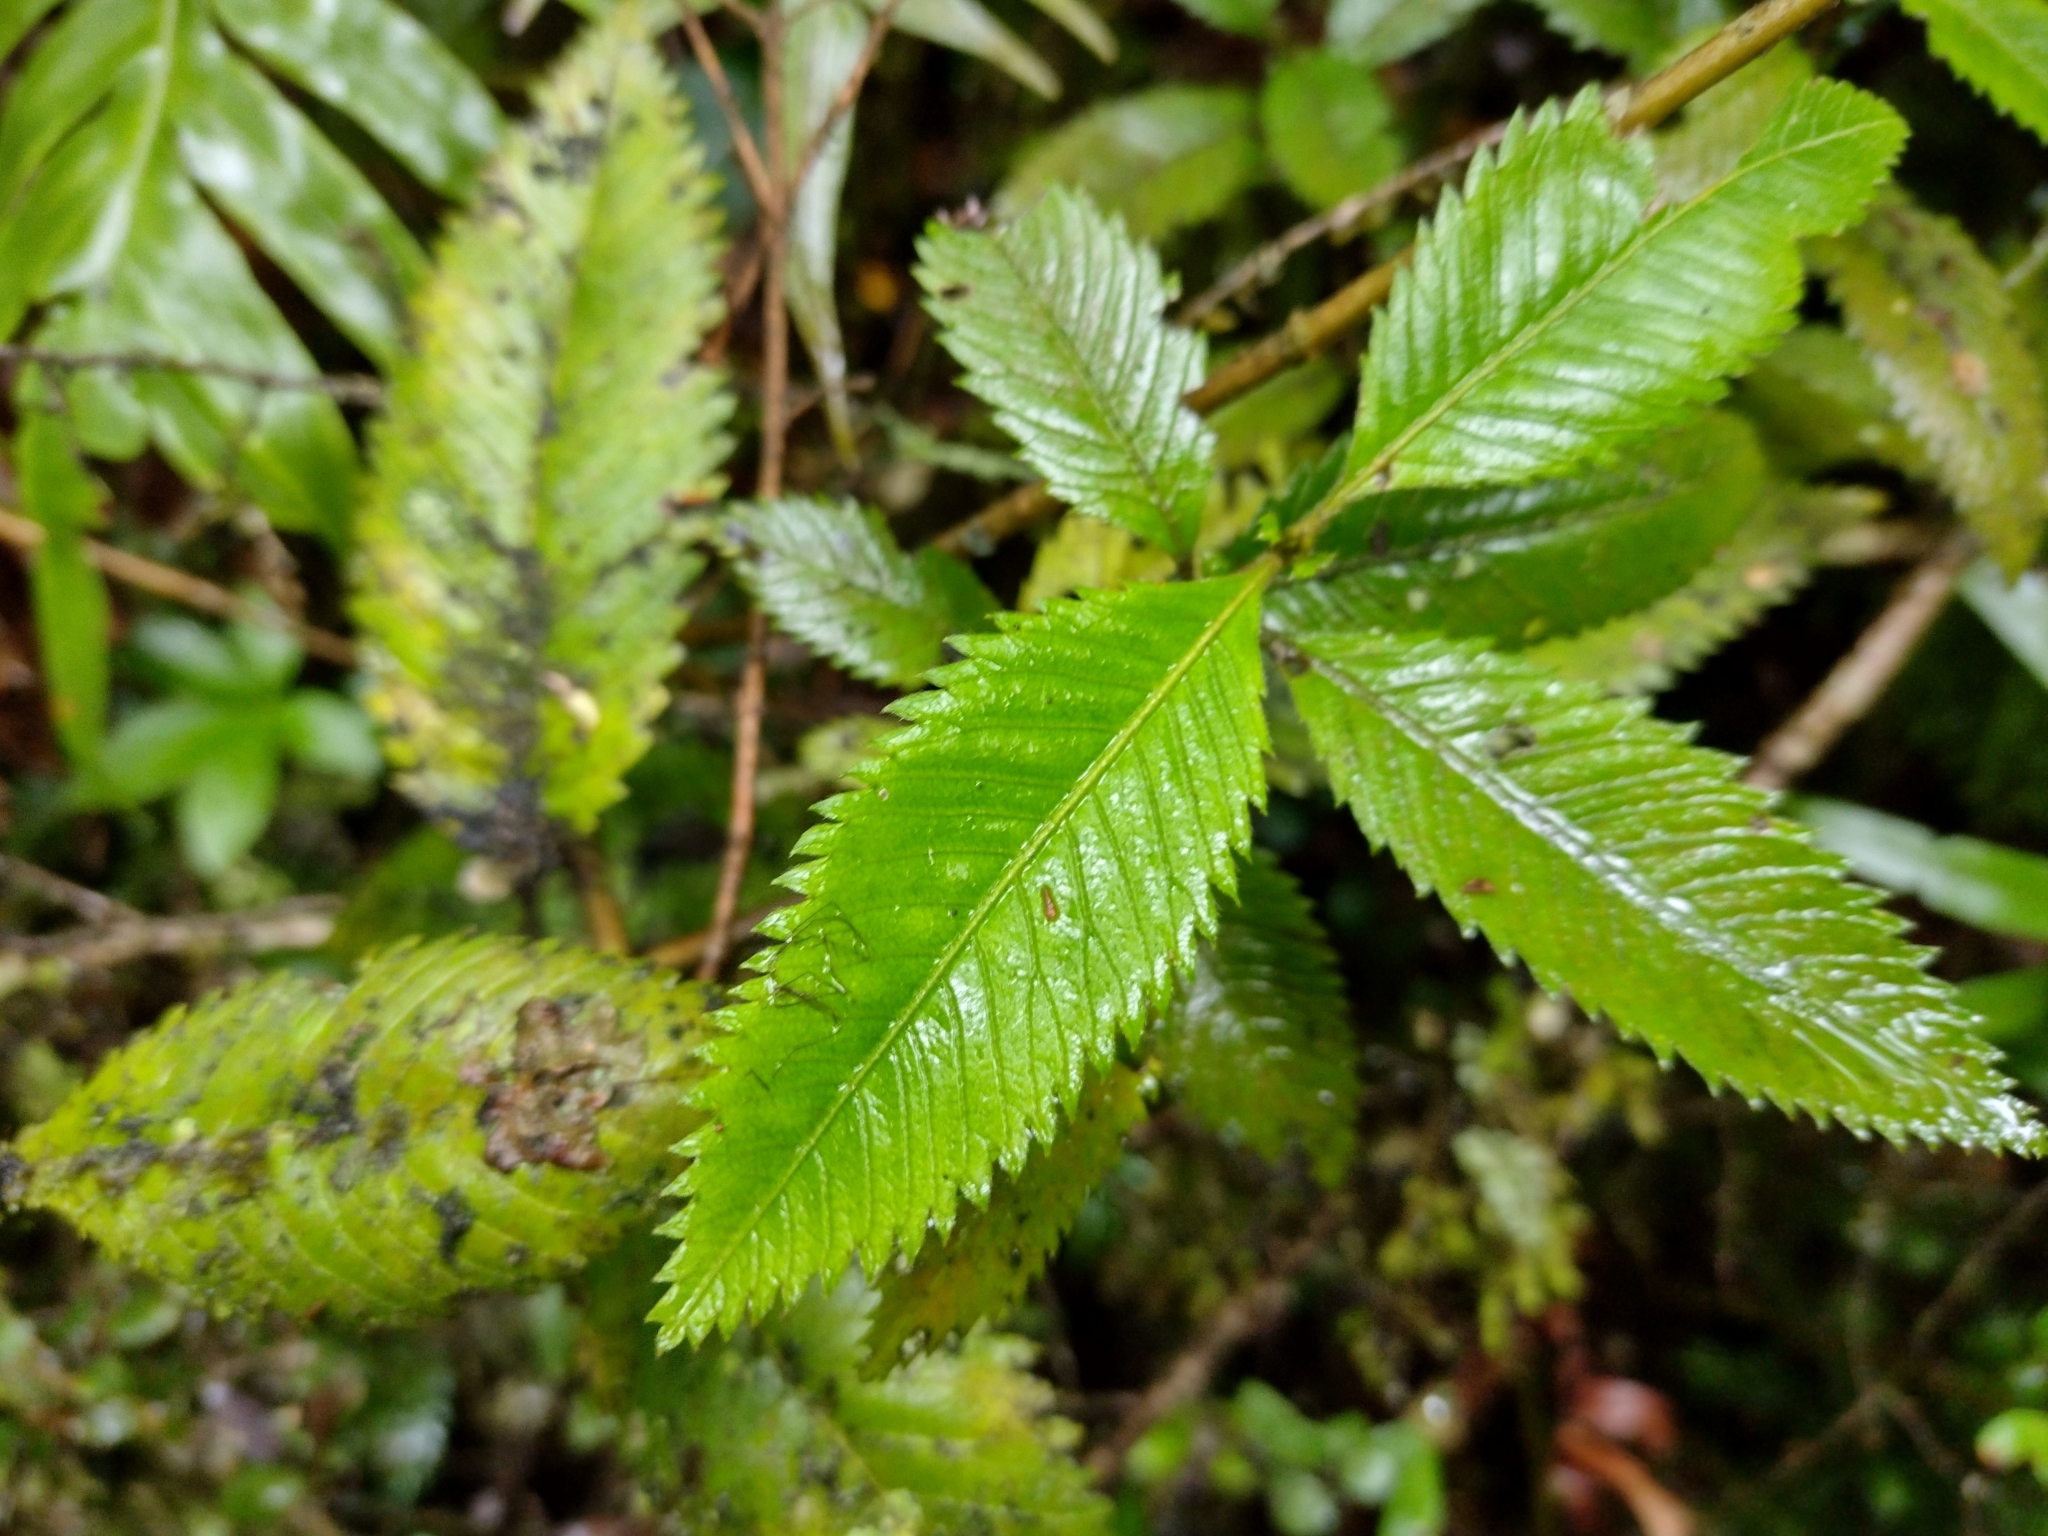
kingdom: Plantae
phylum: Tracheophyta
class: Magnoliopsida
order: Oxalidales
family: Cunoniaceae
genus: Caldcluvia
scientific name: Caldcluvia paniculata
